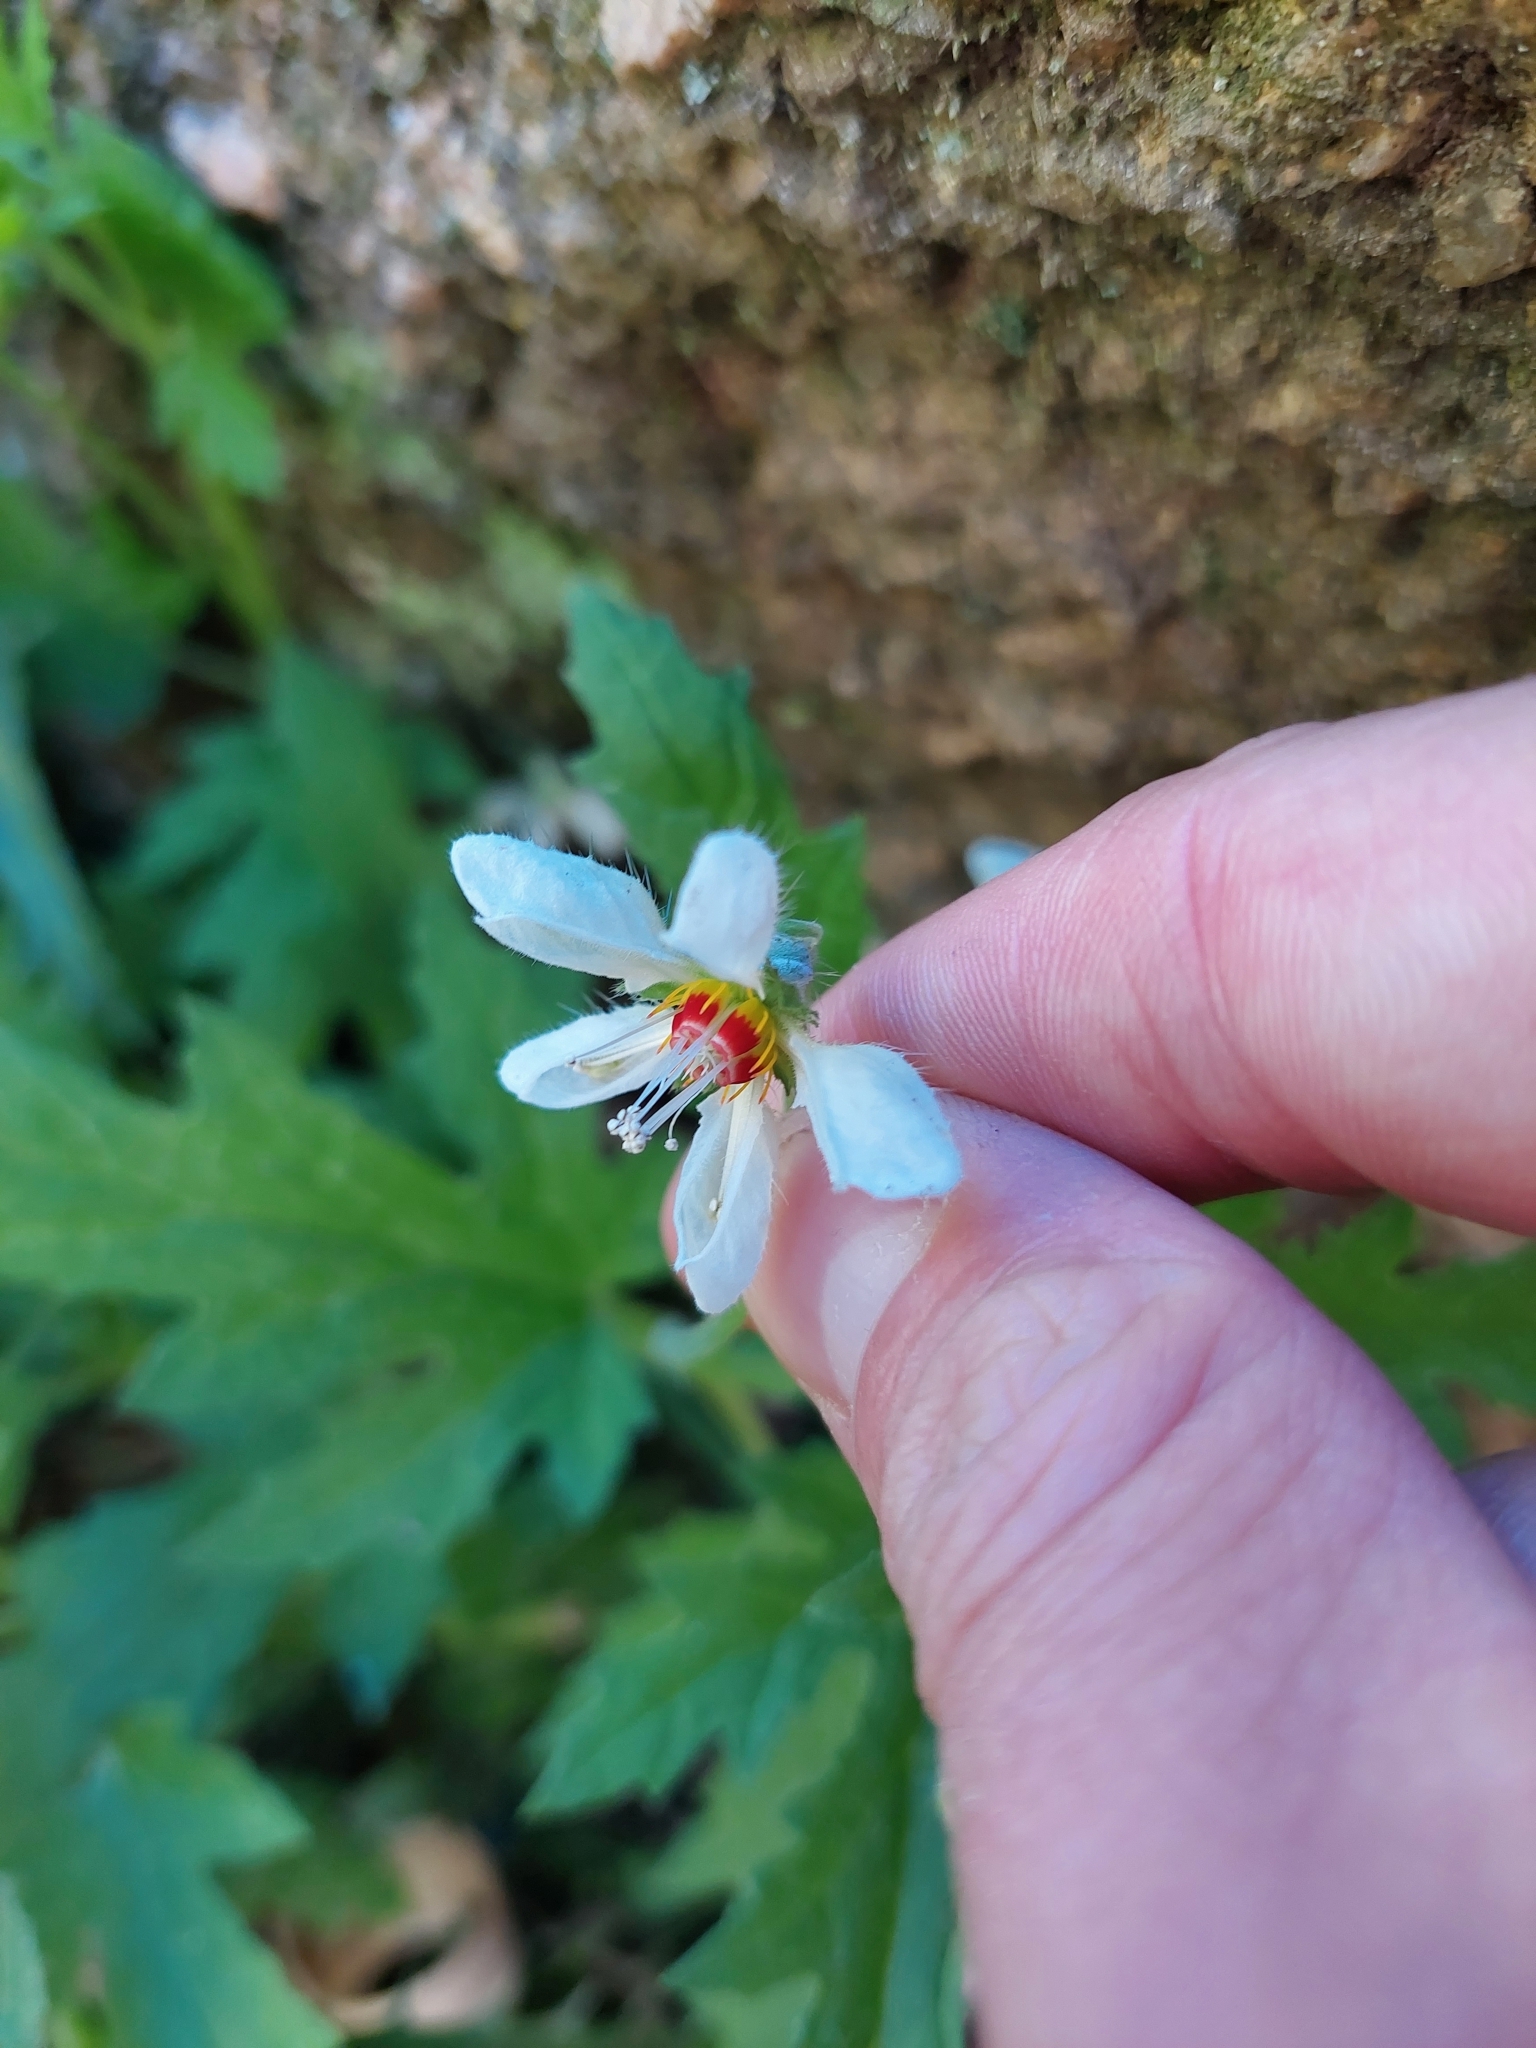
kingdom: Plantae
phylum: Tracheophyta
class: Magnoliopsida
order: Cornales
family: Loasaceae
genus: Blumenbachia
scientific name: Blumenbachia hieronymi
